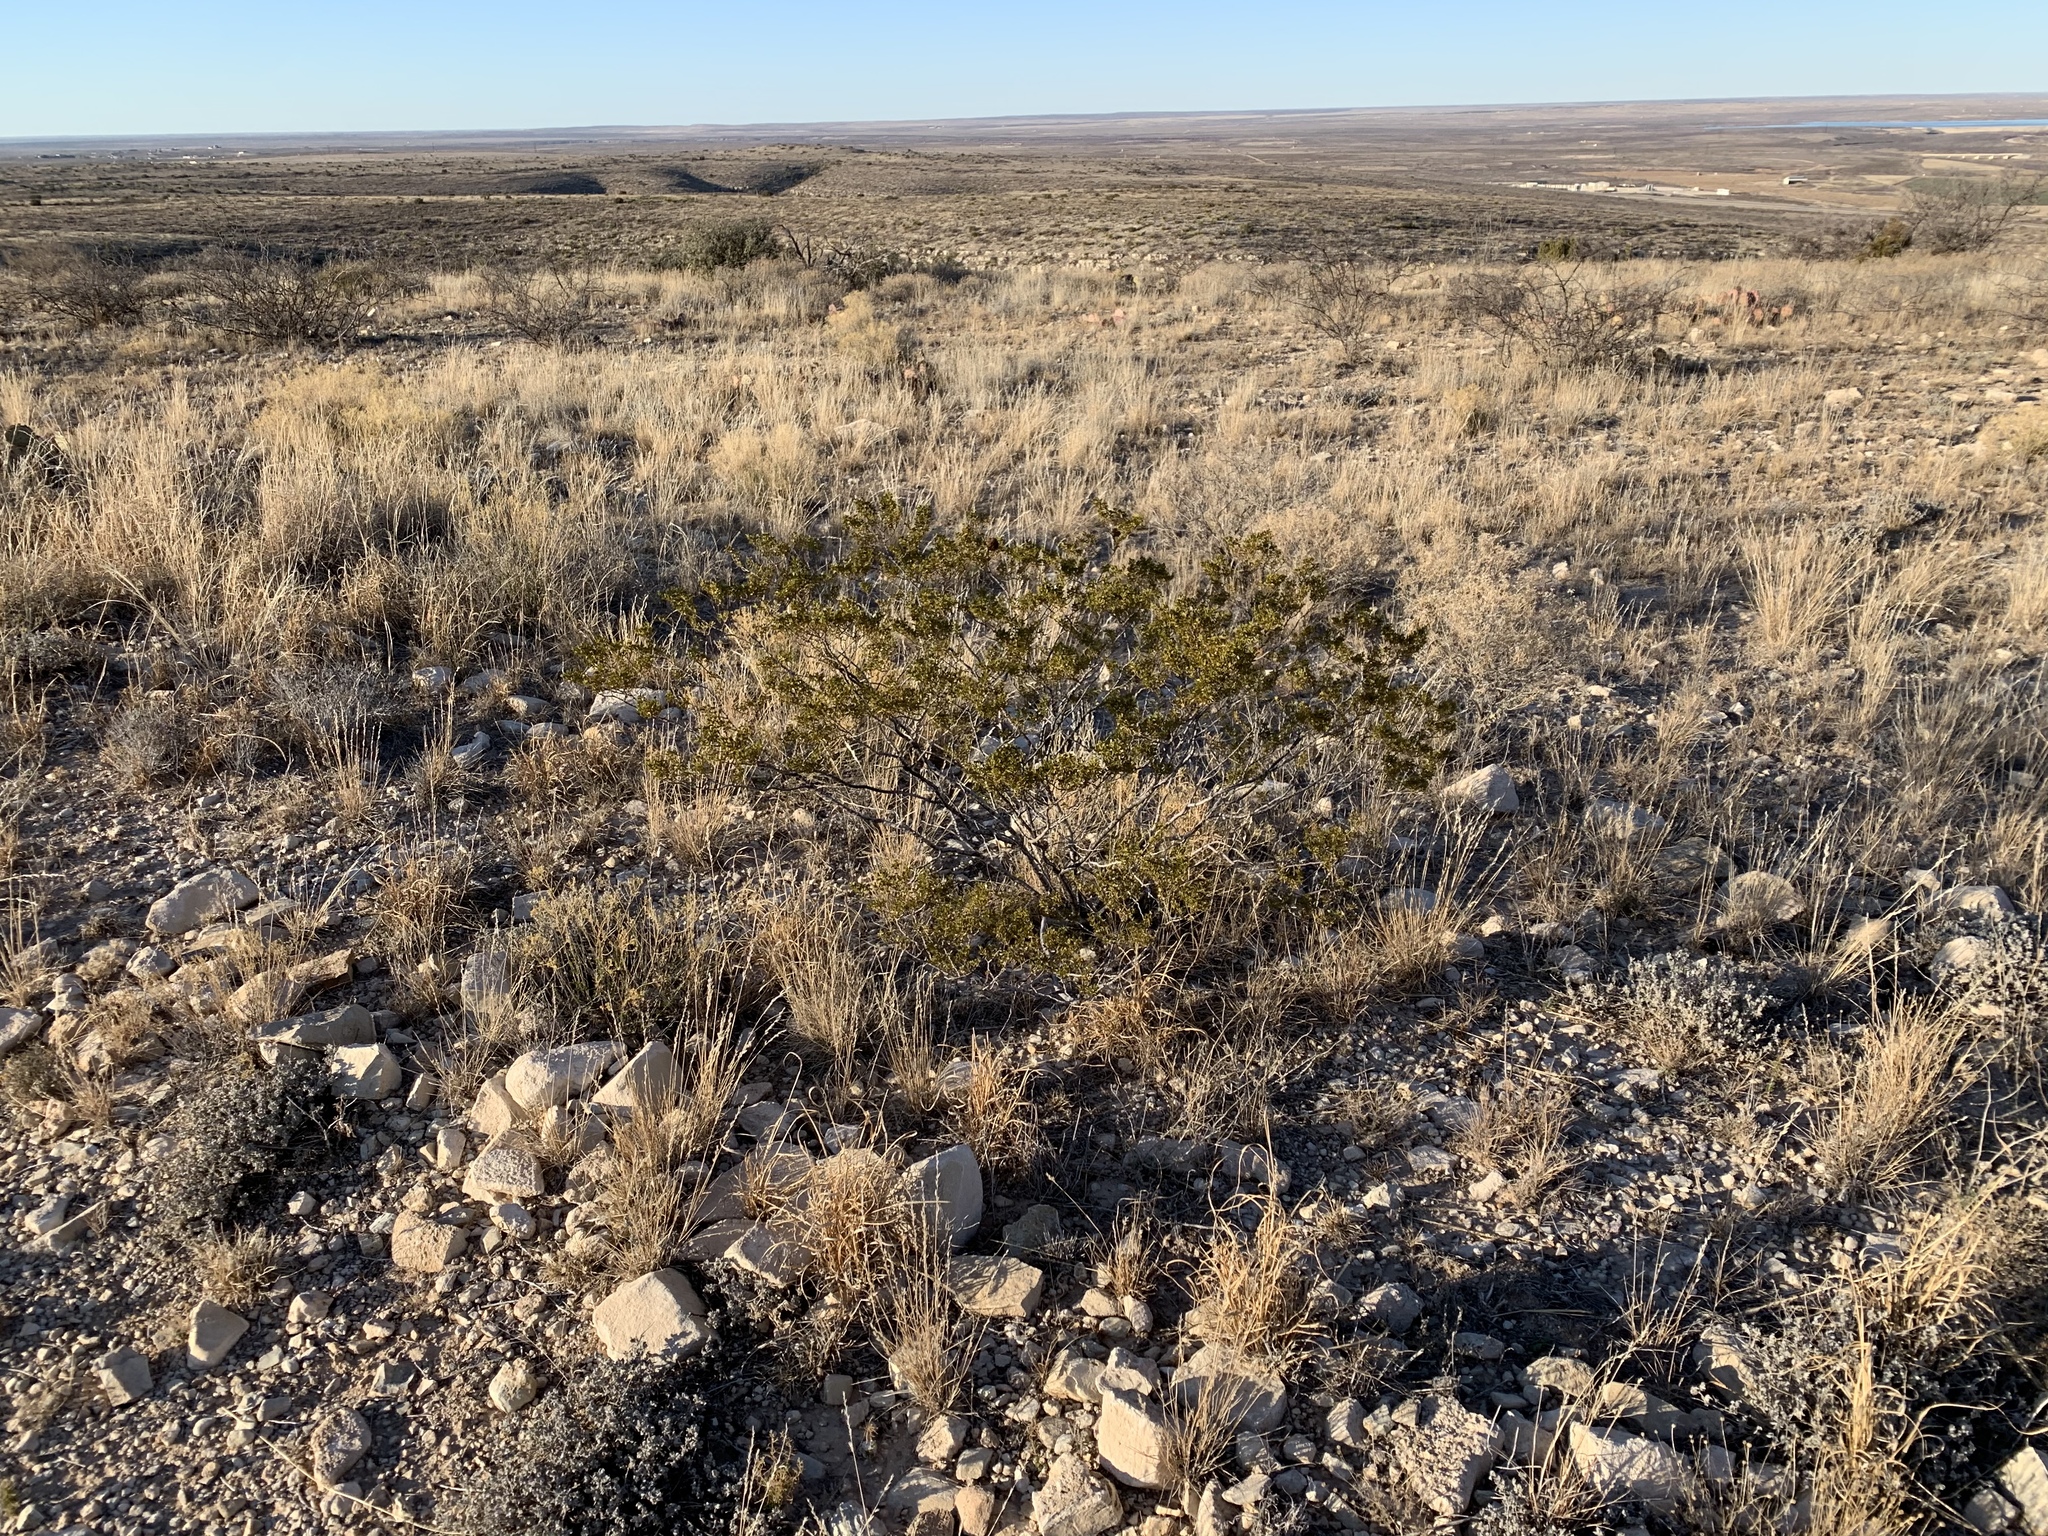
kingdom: Plantae
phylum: Tracheophyta
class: Magnoliopsida
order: Zygophyllales
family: Zygophyllaceae
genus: Larrea
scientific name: Larrea tridentata
